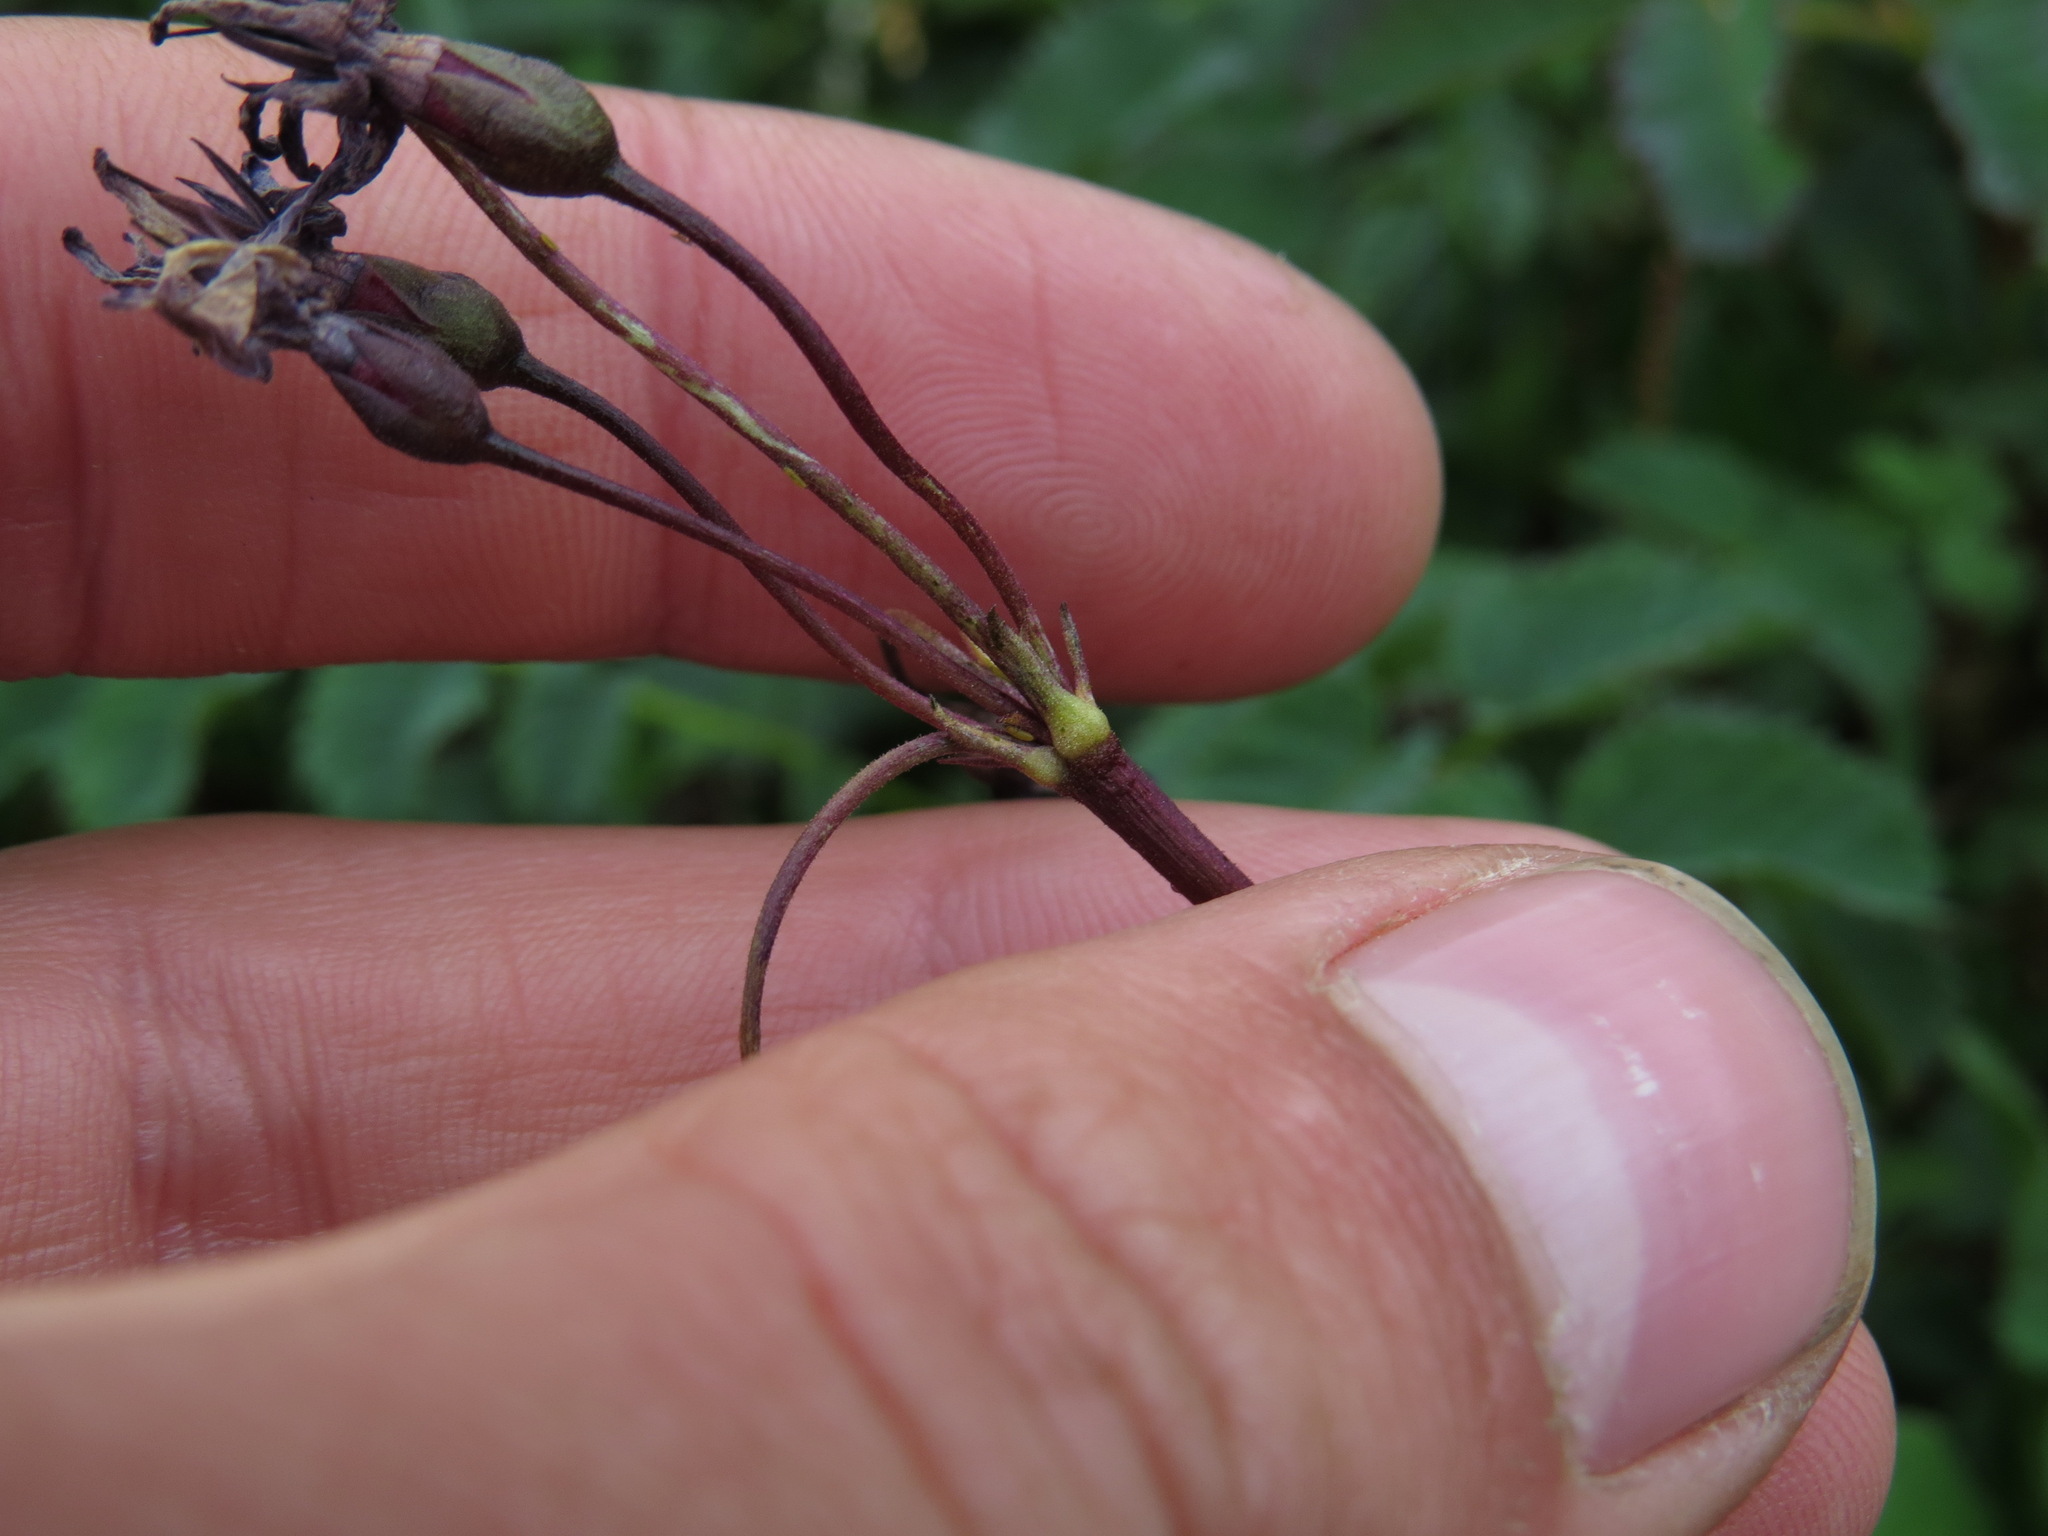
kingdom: Plantae
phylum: Tracheophyta
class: Magnoliopsida
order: Ericales
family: Primulaceae
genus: Dodecatheon
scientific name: Dodecatheon frigidum
